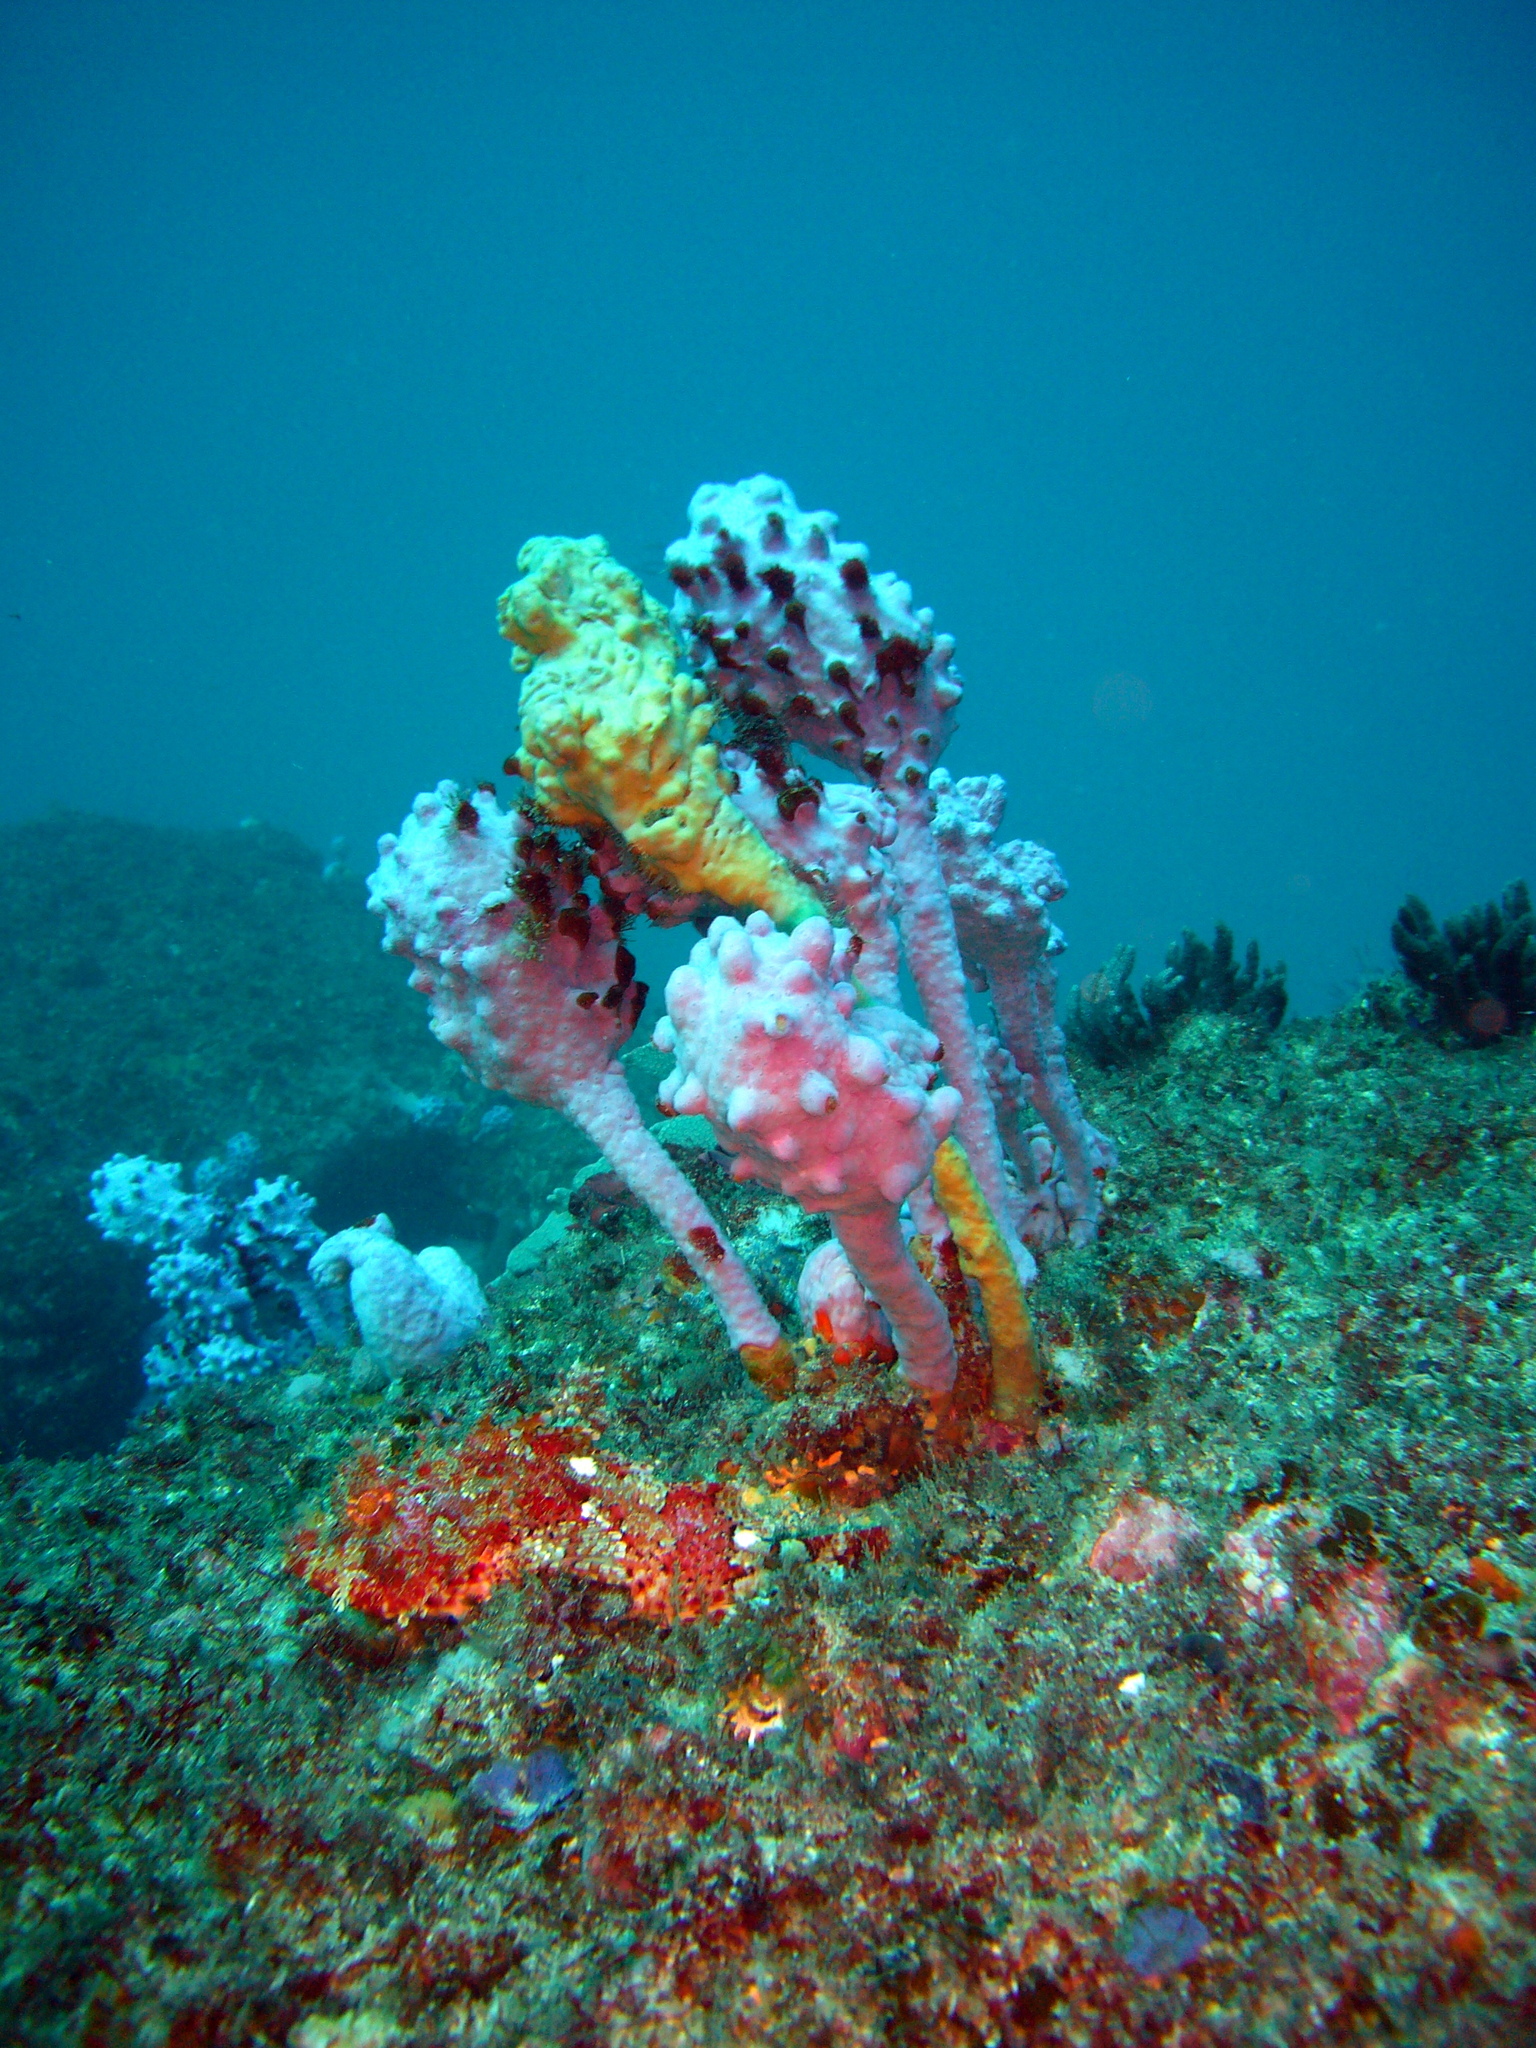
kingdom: Animalia
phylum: Chordata
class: Ascidiacea
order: Stolidobranchia
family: Pyuridae
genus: Pyura
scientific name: Pyura spinifera
